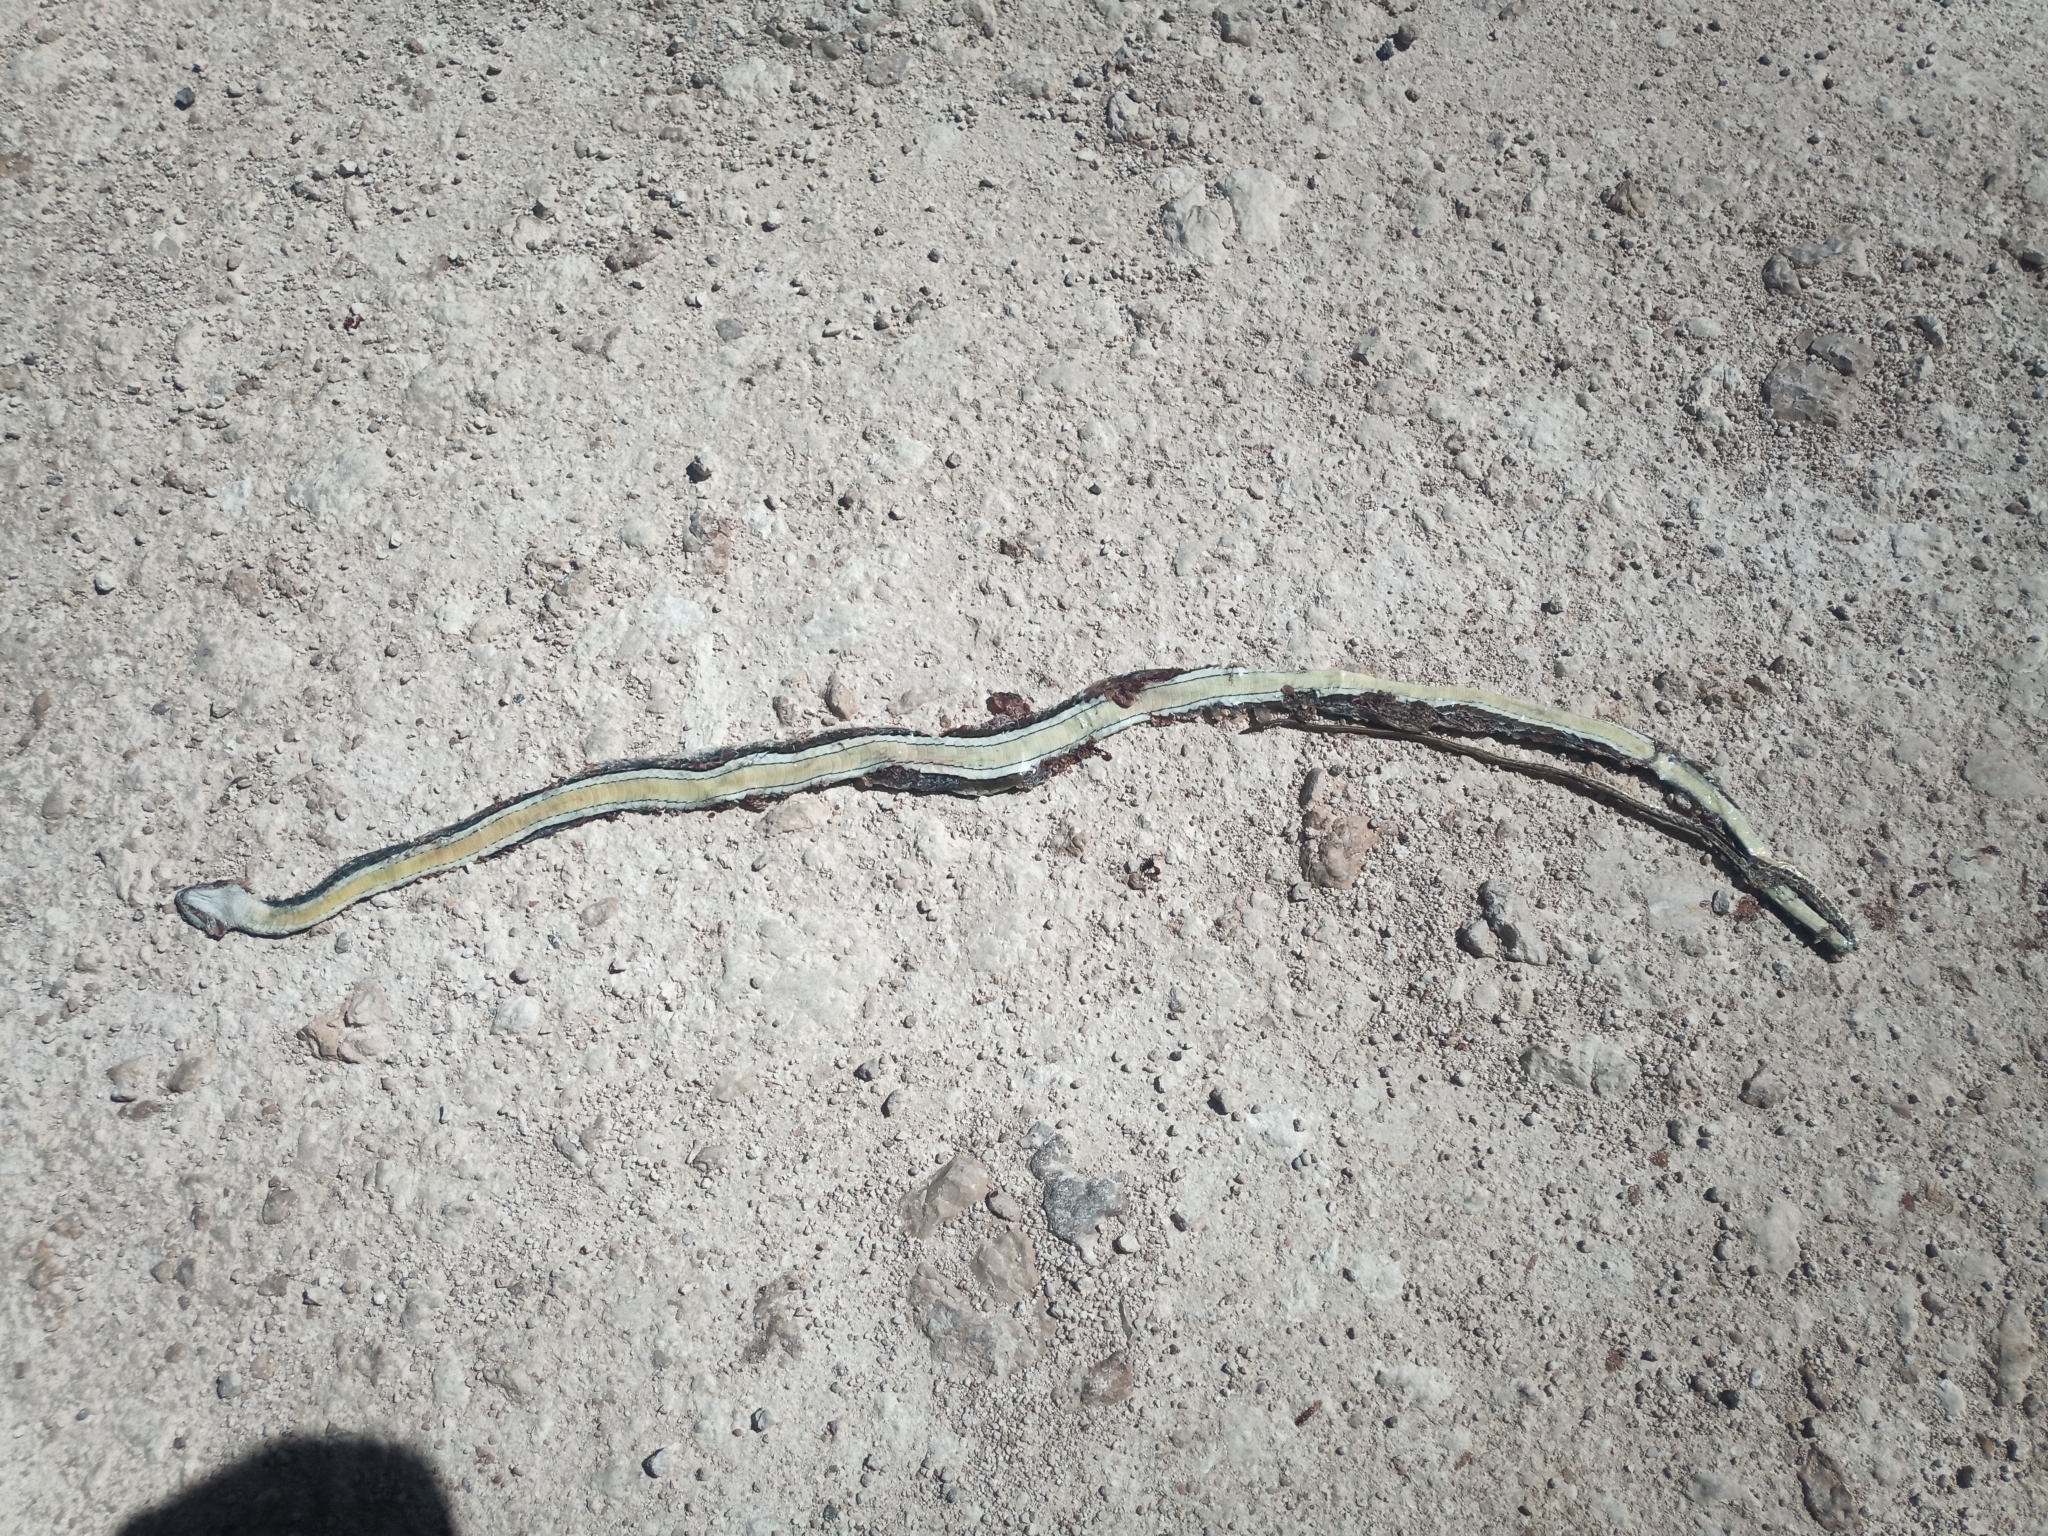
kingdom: Animalia
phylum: Chordata
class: Squamata
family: Psammophiidae
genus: Psammophis
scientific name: Psammophis subtaeniatus
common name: Stripe-bellied sand snake
